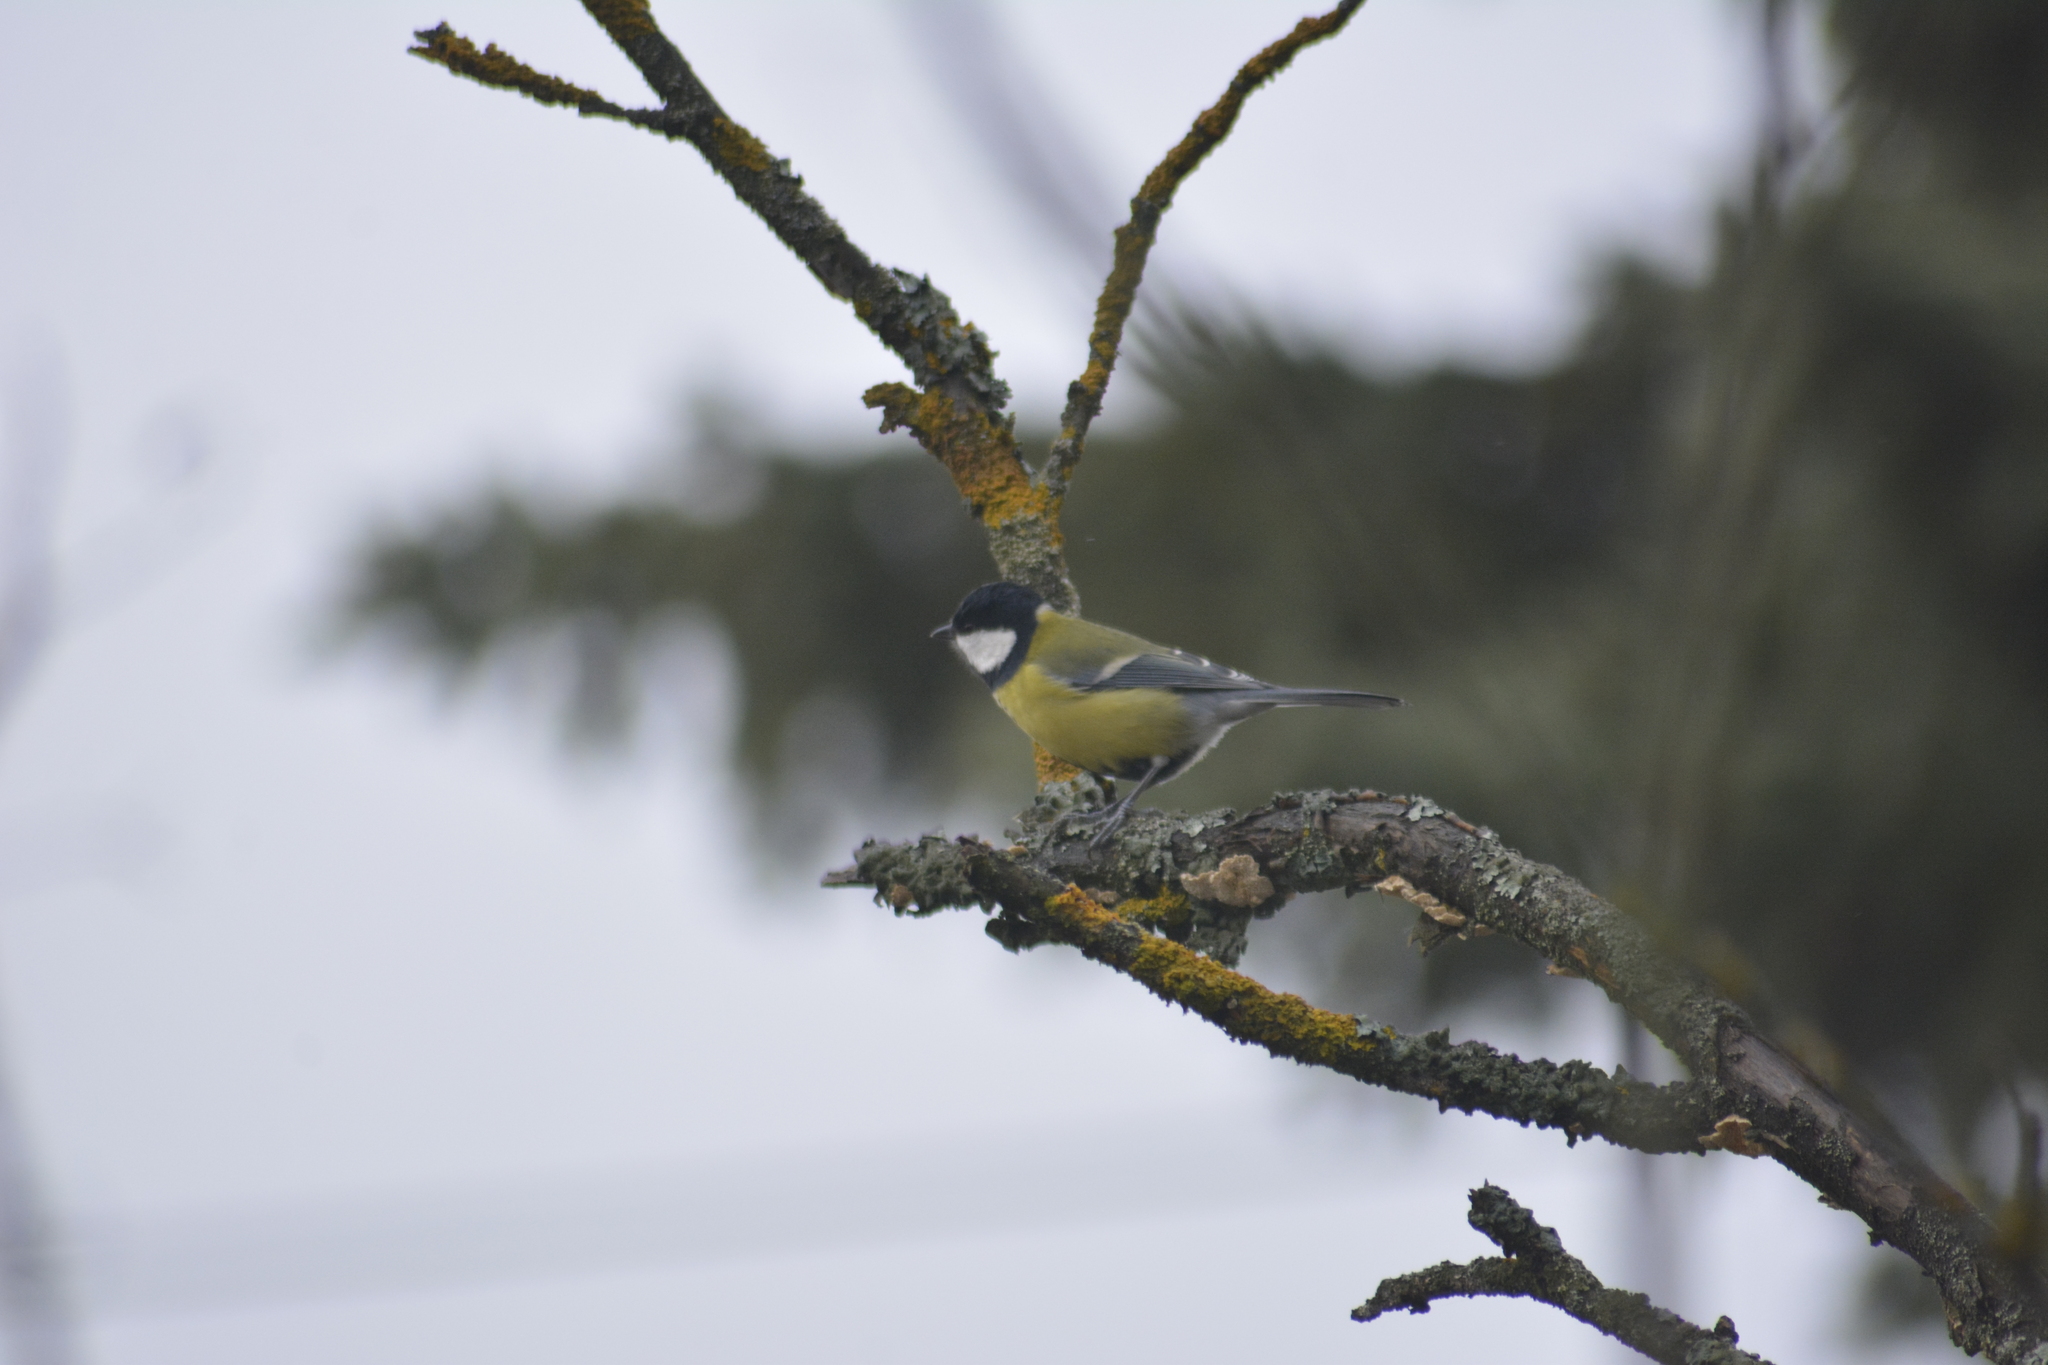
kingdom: Animalia
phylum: Chordata
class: Aves
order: Passeriformes
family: Paridae
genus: Parus
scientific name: Parus major
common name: Great tit
